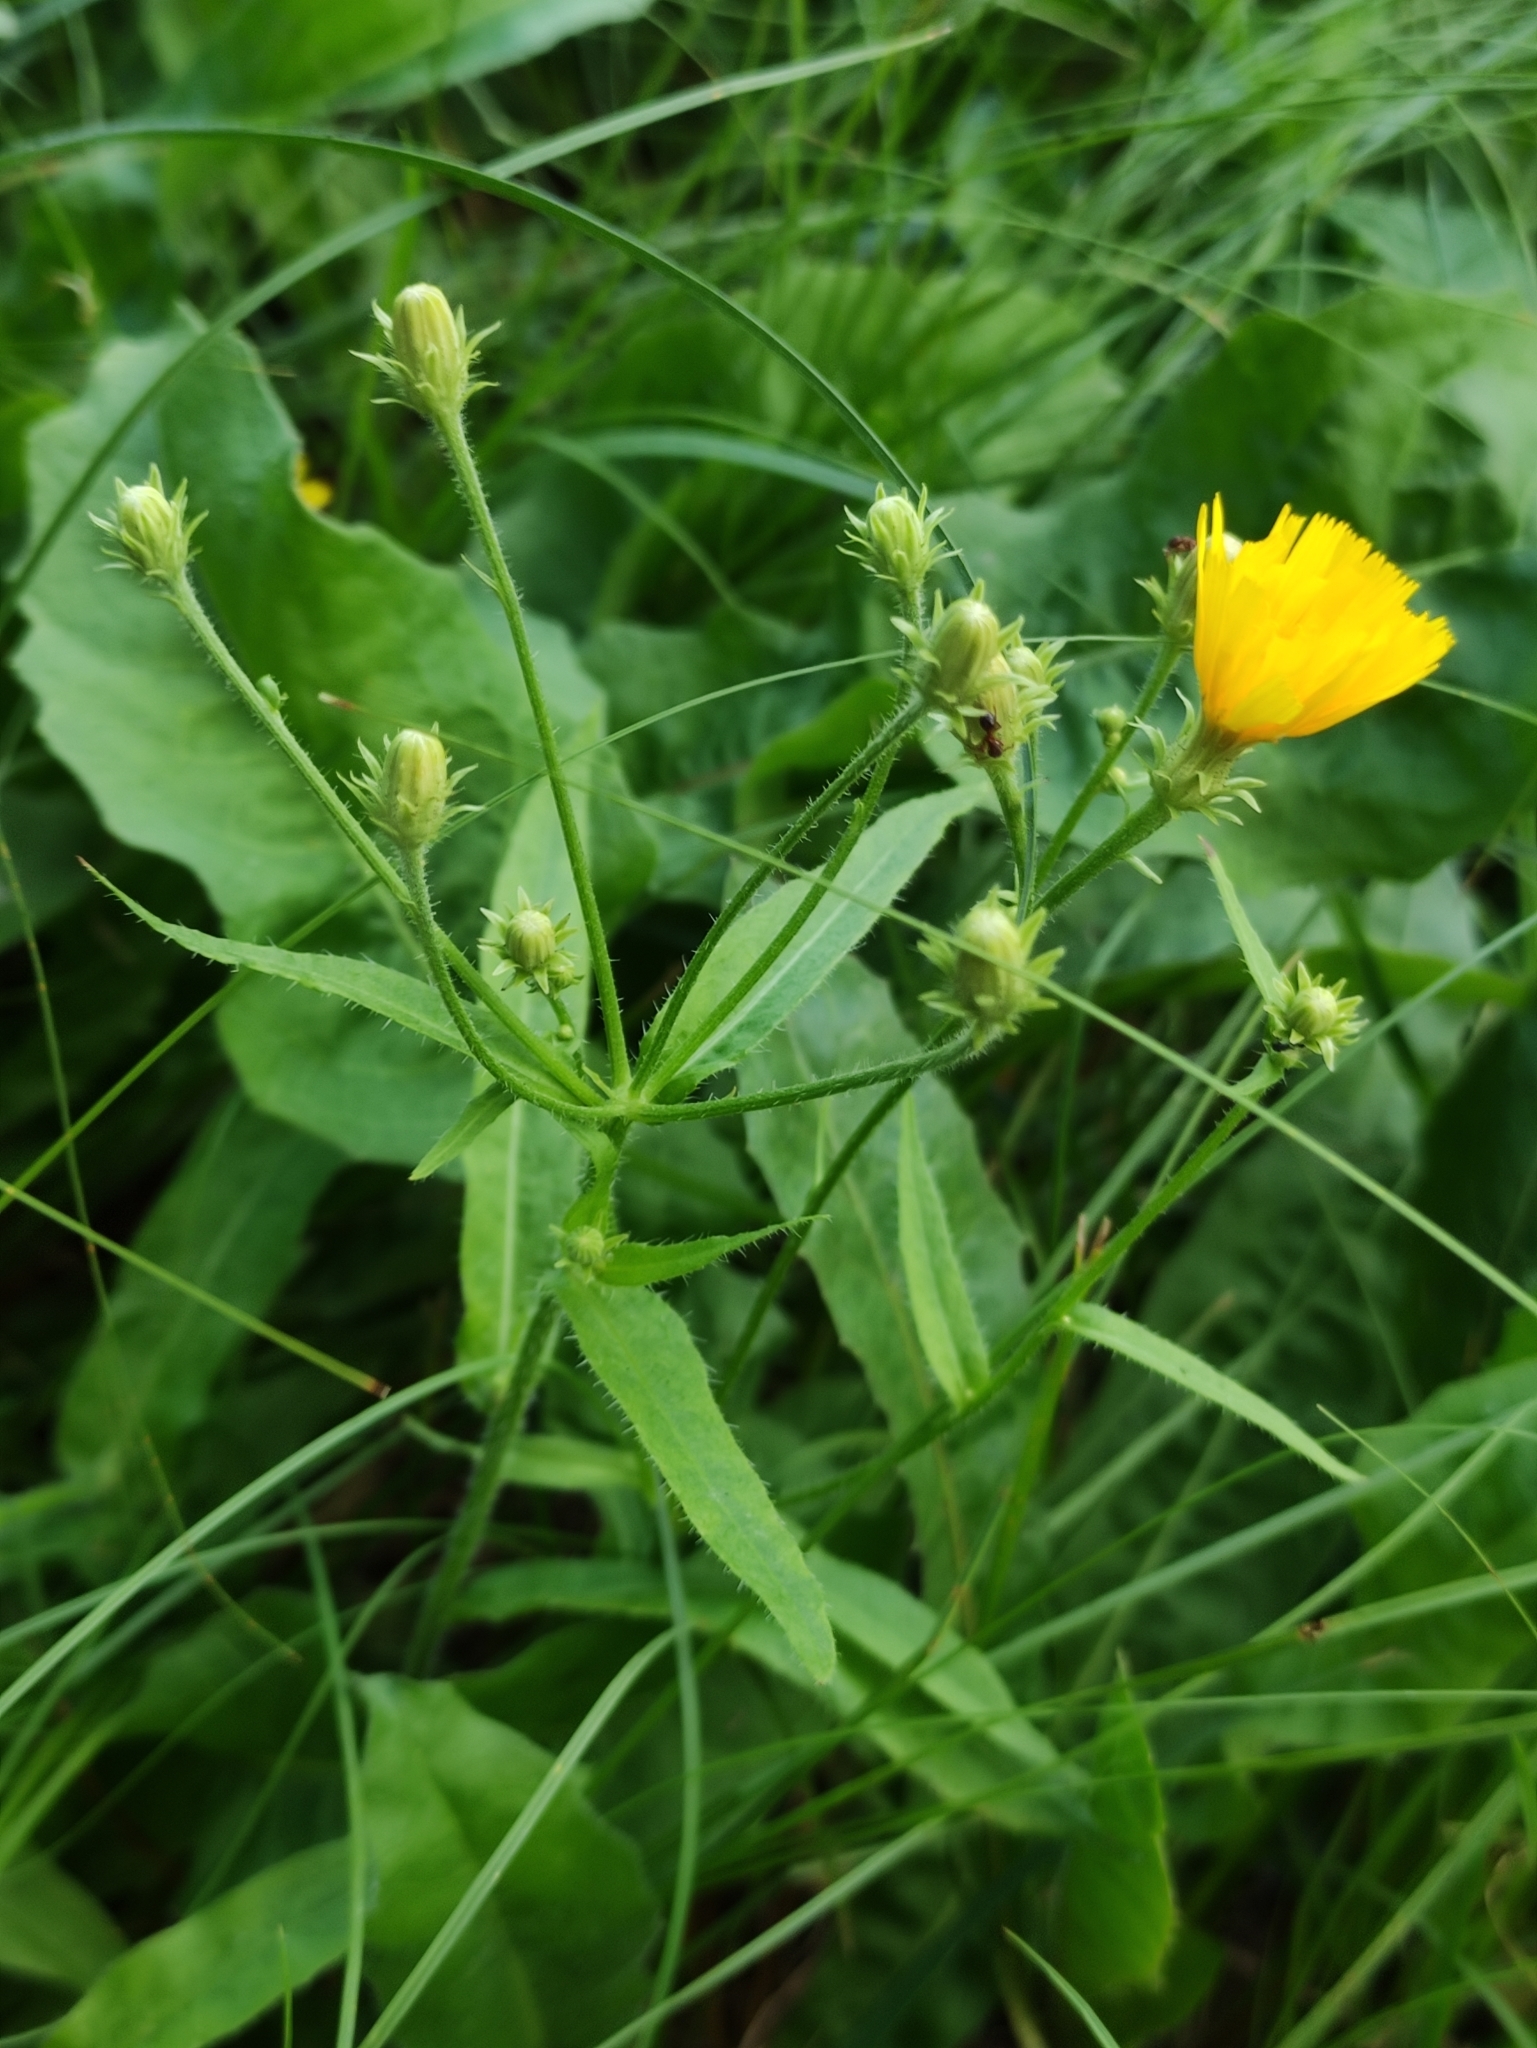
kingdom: Plantae
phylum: Tracheophyta
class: Magnoliopsida
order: Asterales
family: Asteraceae
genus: Picris
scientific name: Picris hieracioides
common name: Hawkweed oxtongue
